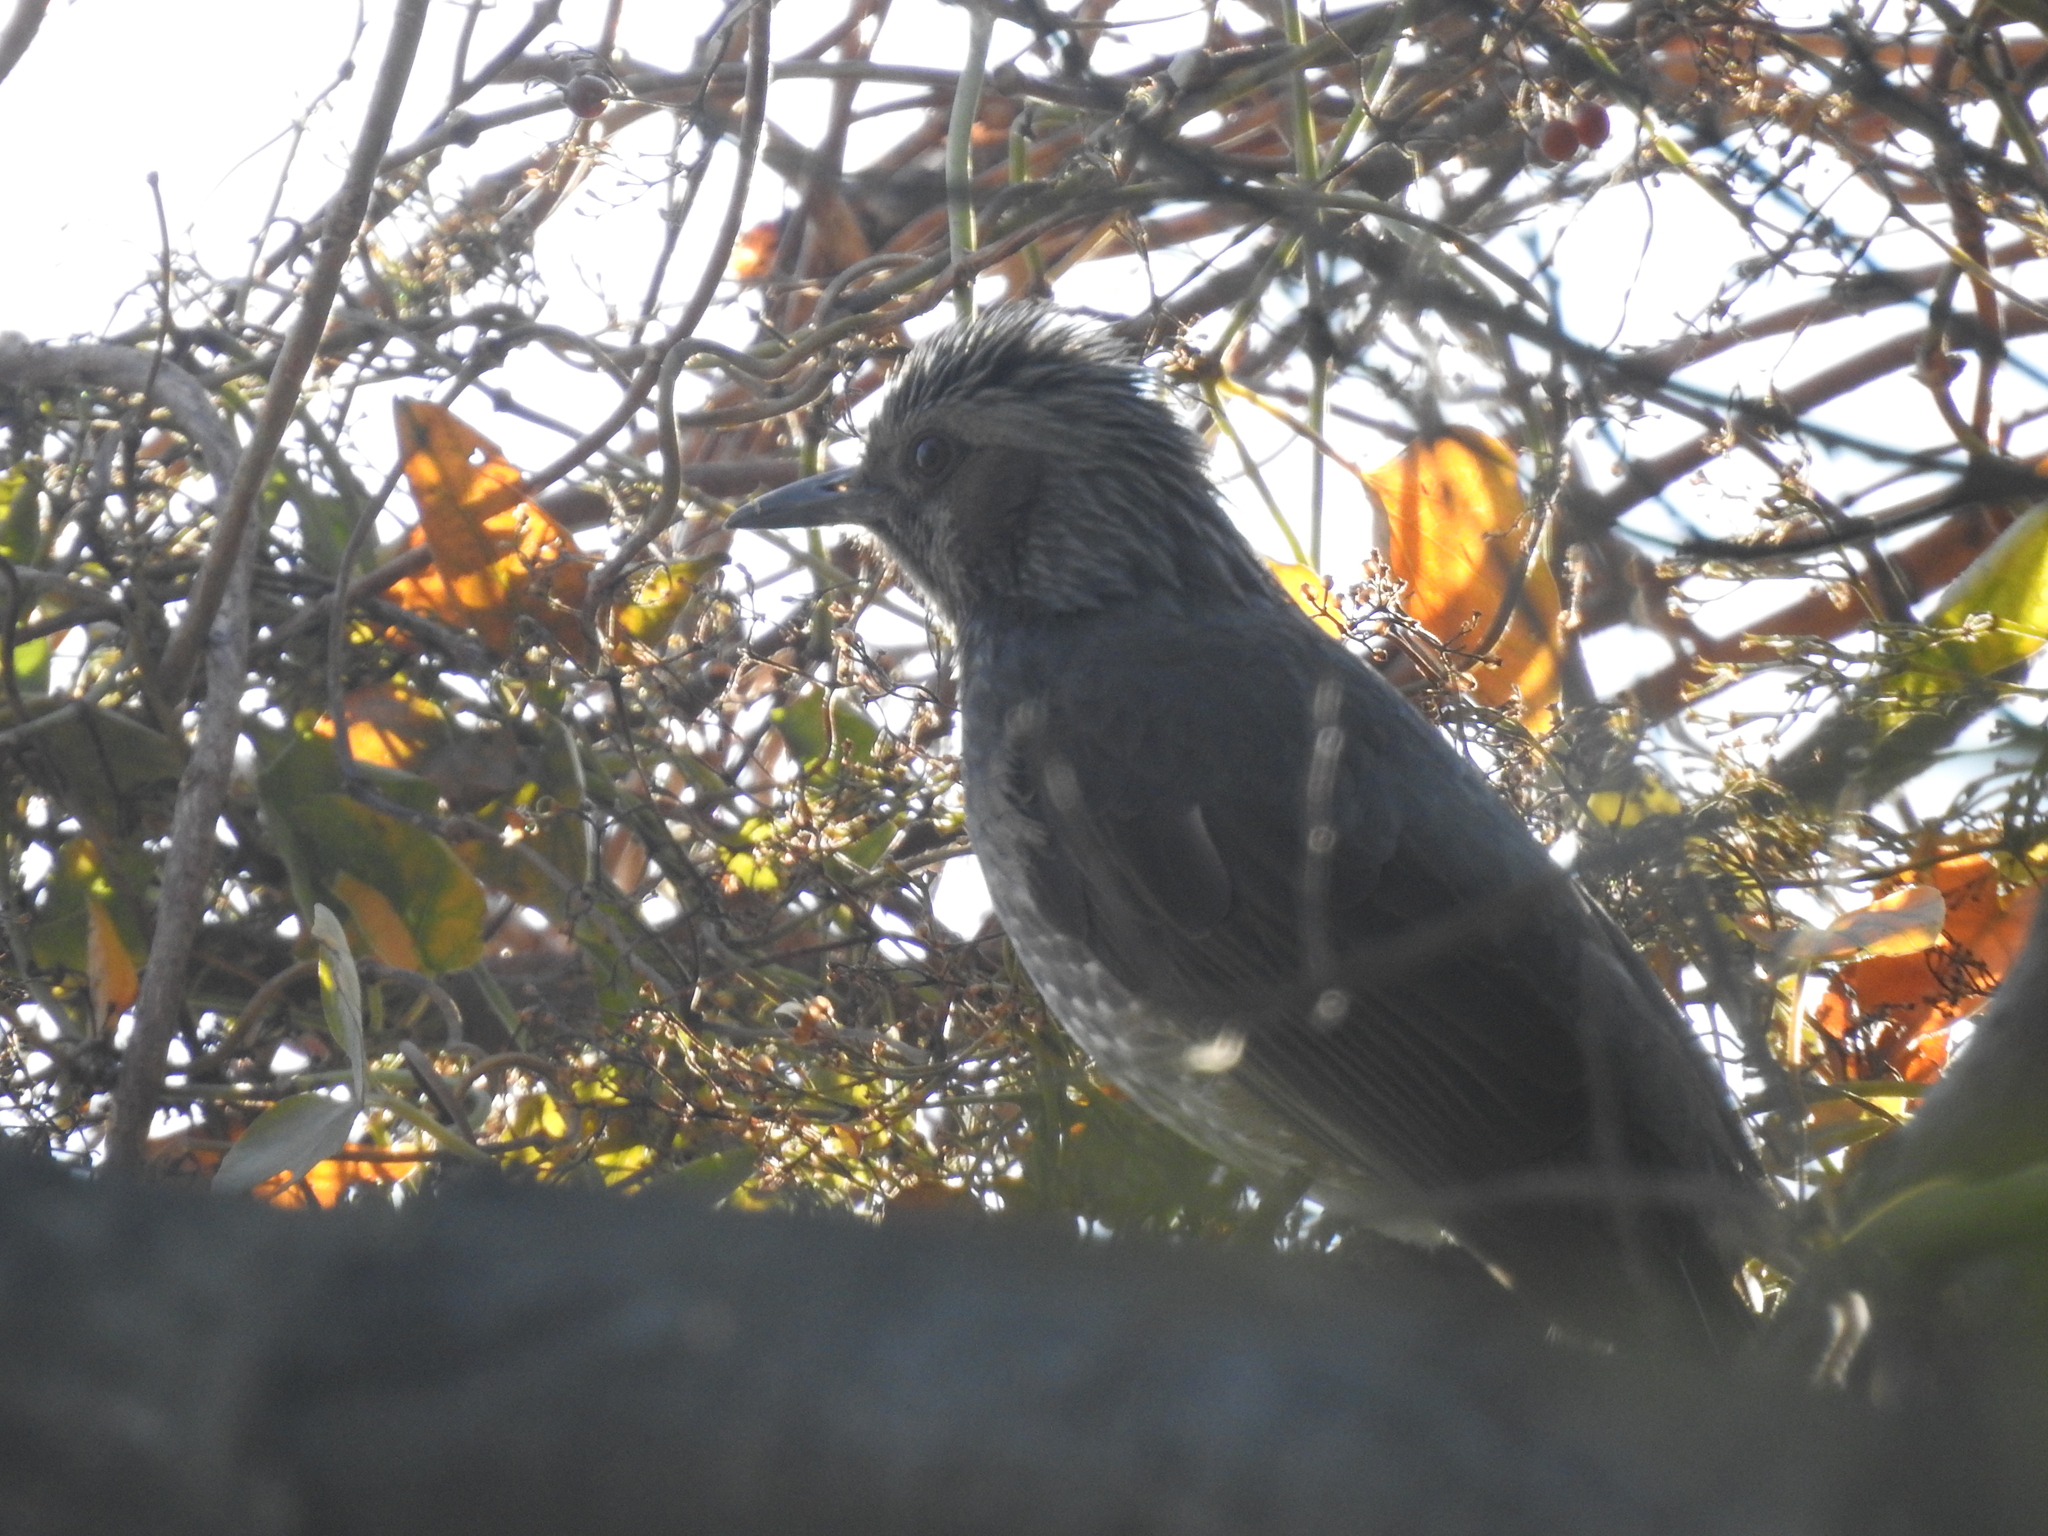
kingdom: Animalia
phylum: Chordata
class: Aves
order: Passeriformes
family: Pycnonotidae
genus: Hypsipetes
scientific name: Hypsipetes amaurotis
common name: Brown-eared bulbul
